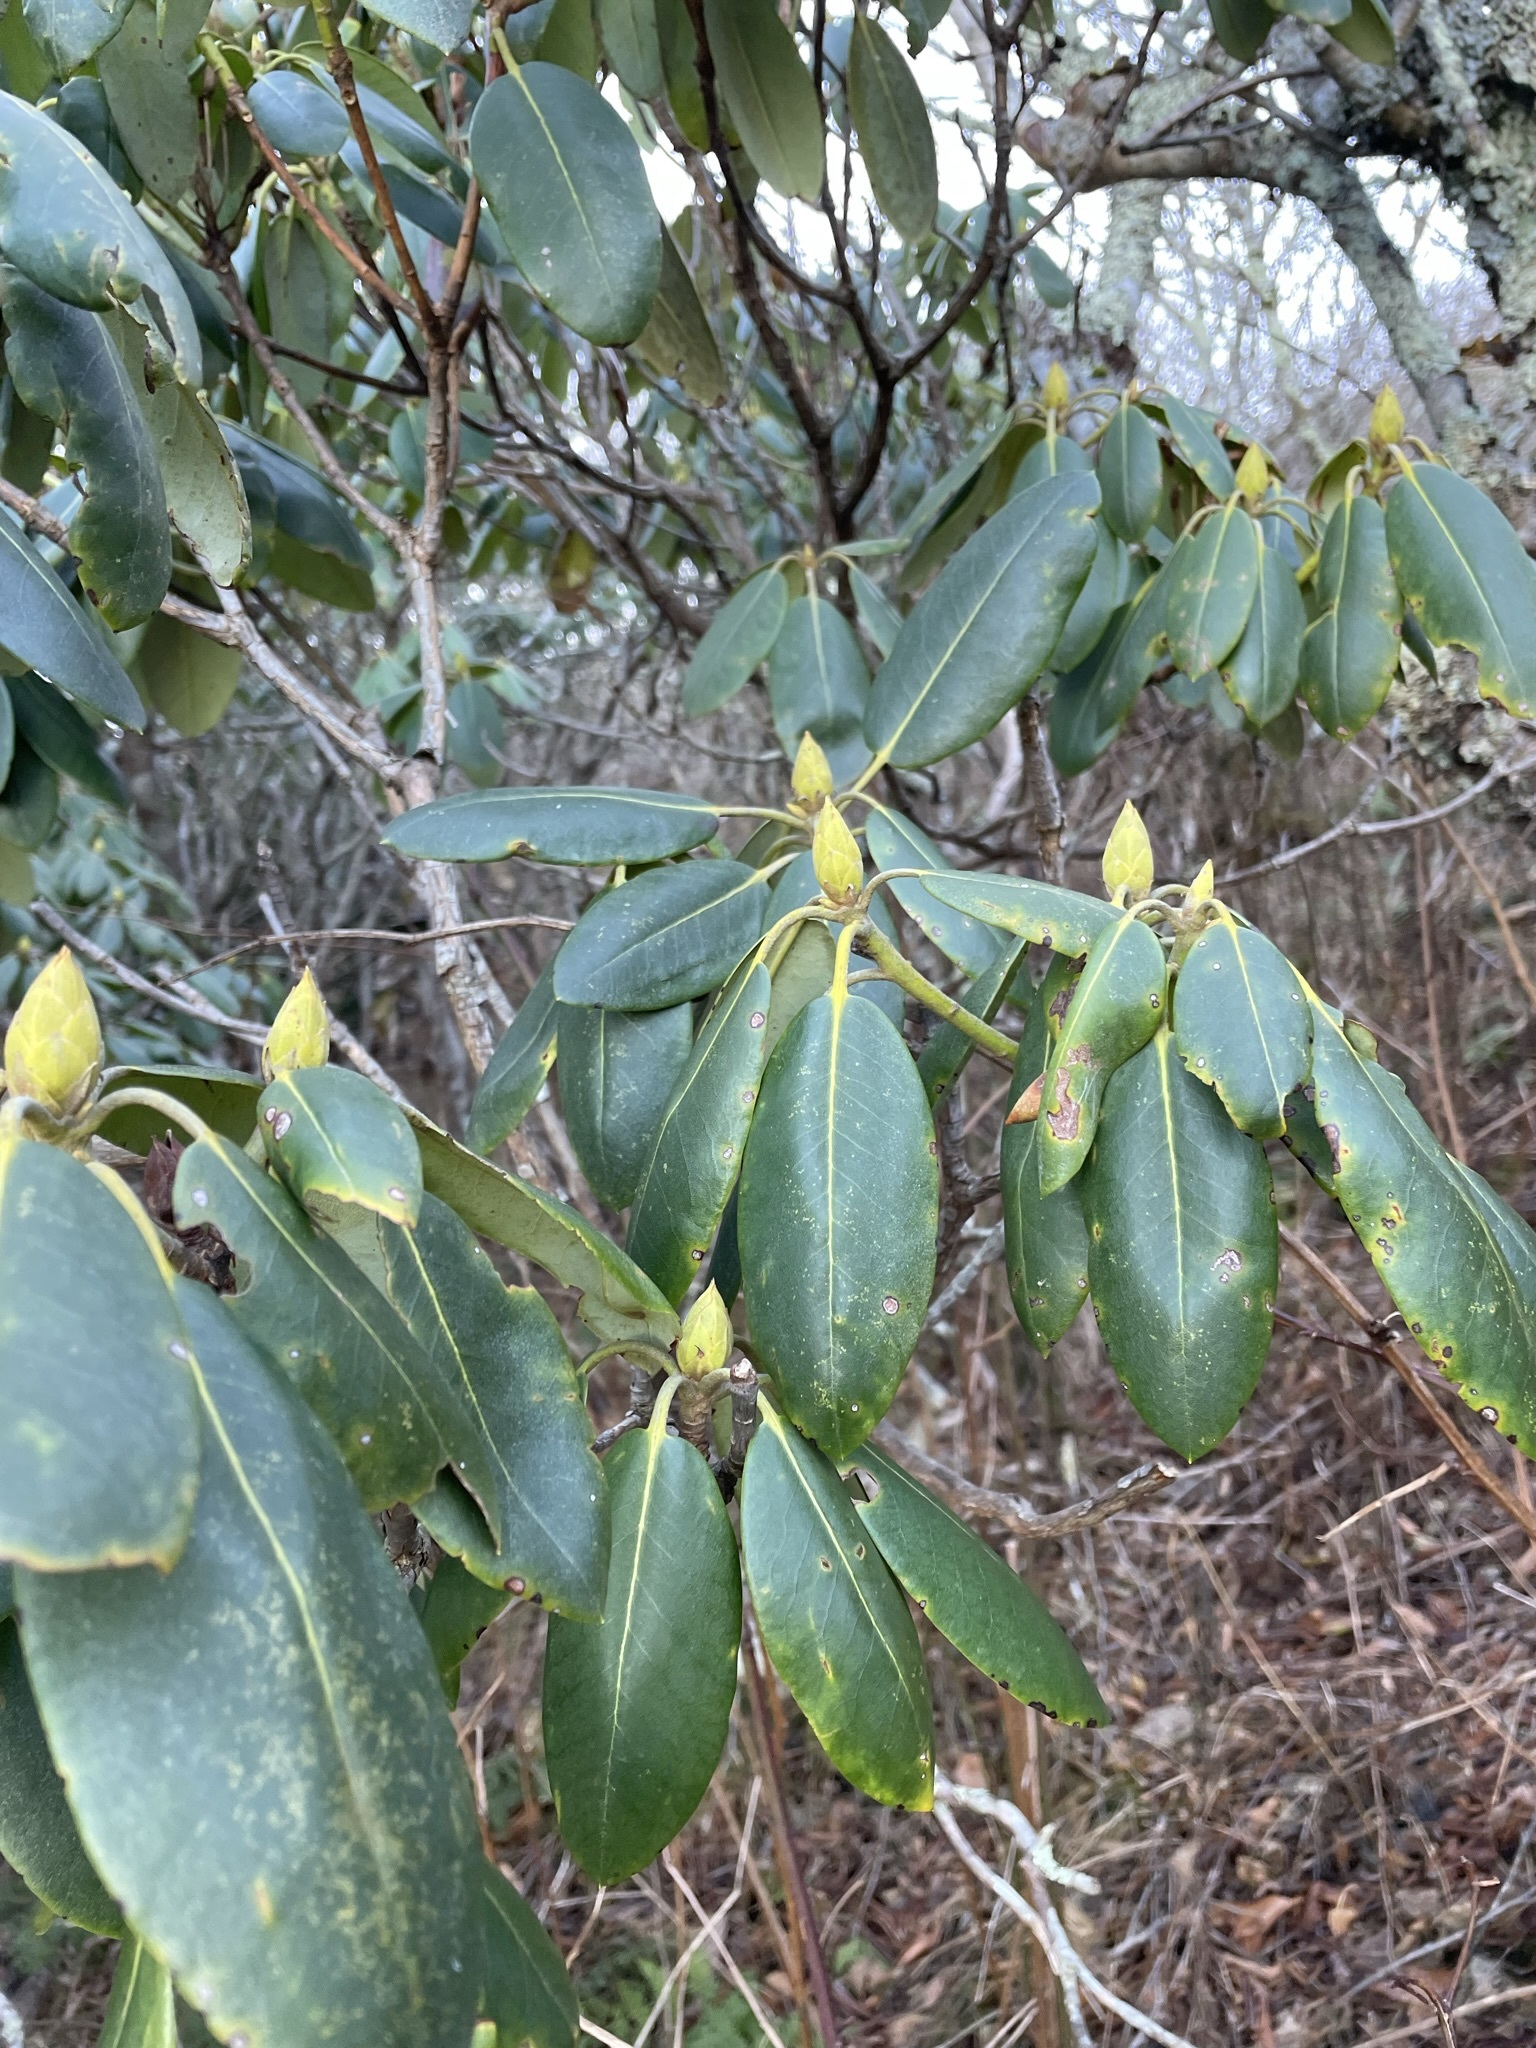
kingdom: Plantae
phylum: Tracheophyta
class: Magnoliopsida
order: Ericales
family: Ericaceae
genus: Rhododendron
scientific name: Rhododendron catawbiense
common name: Catawba rhododendron
